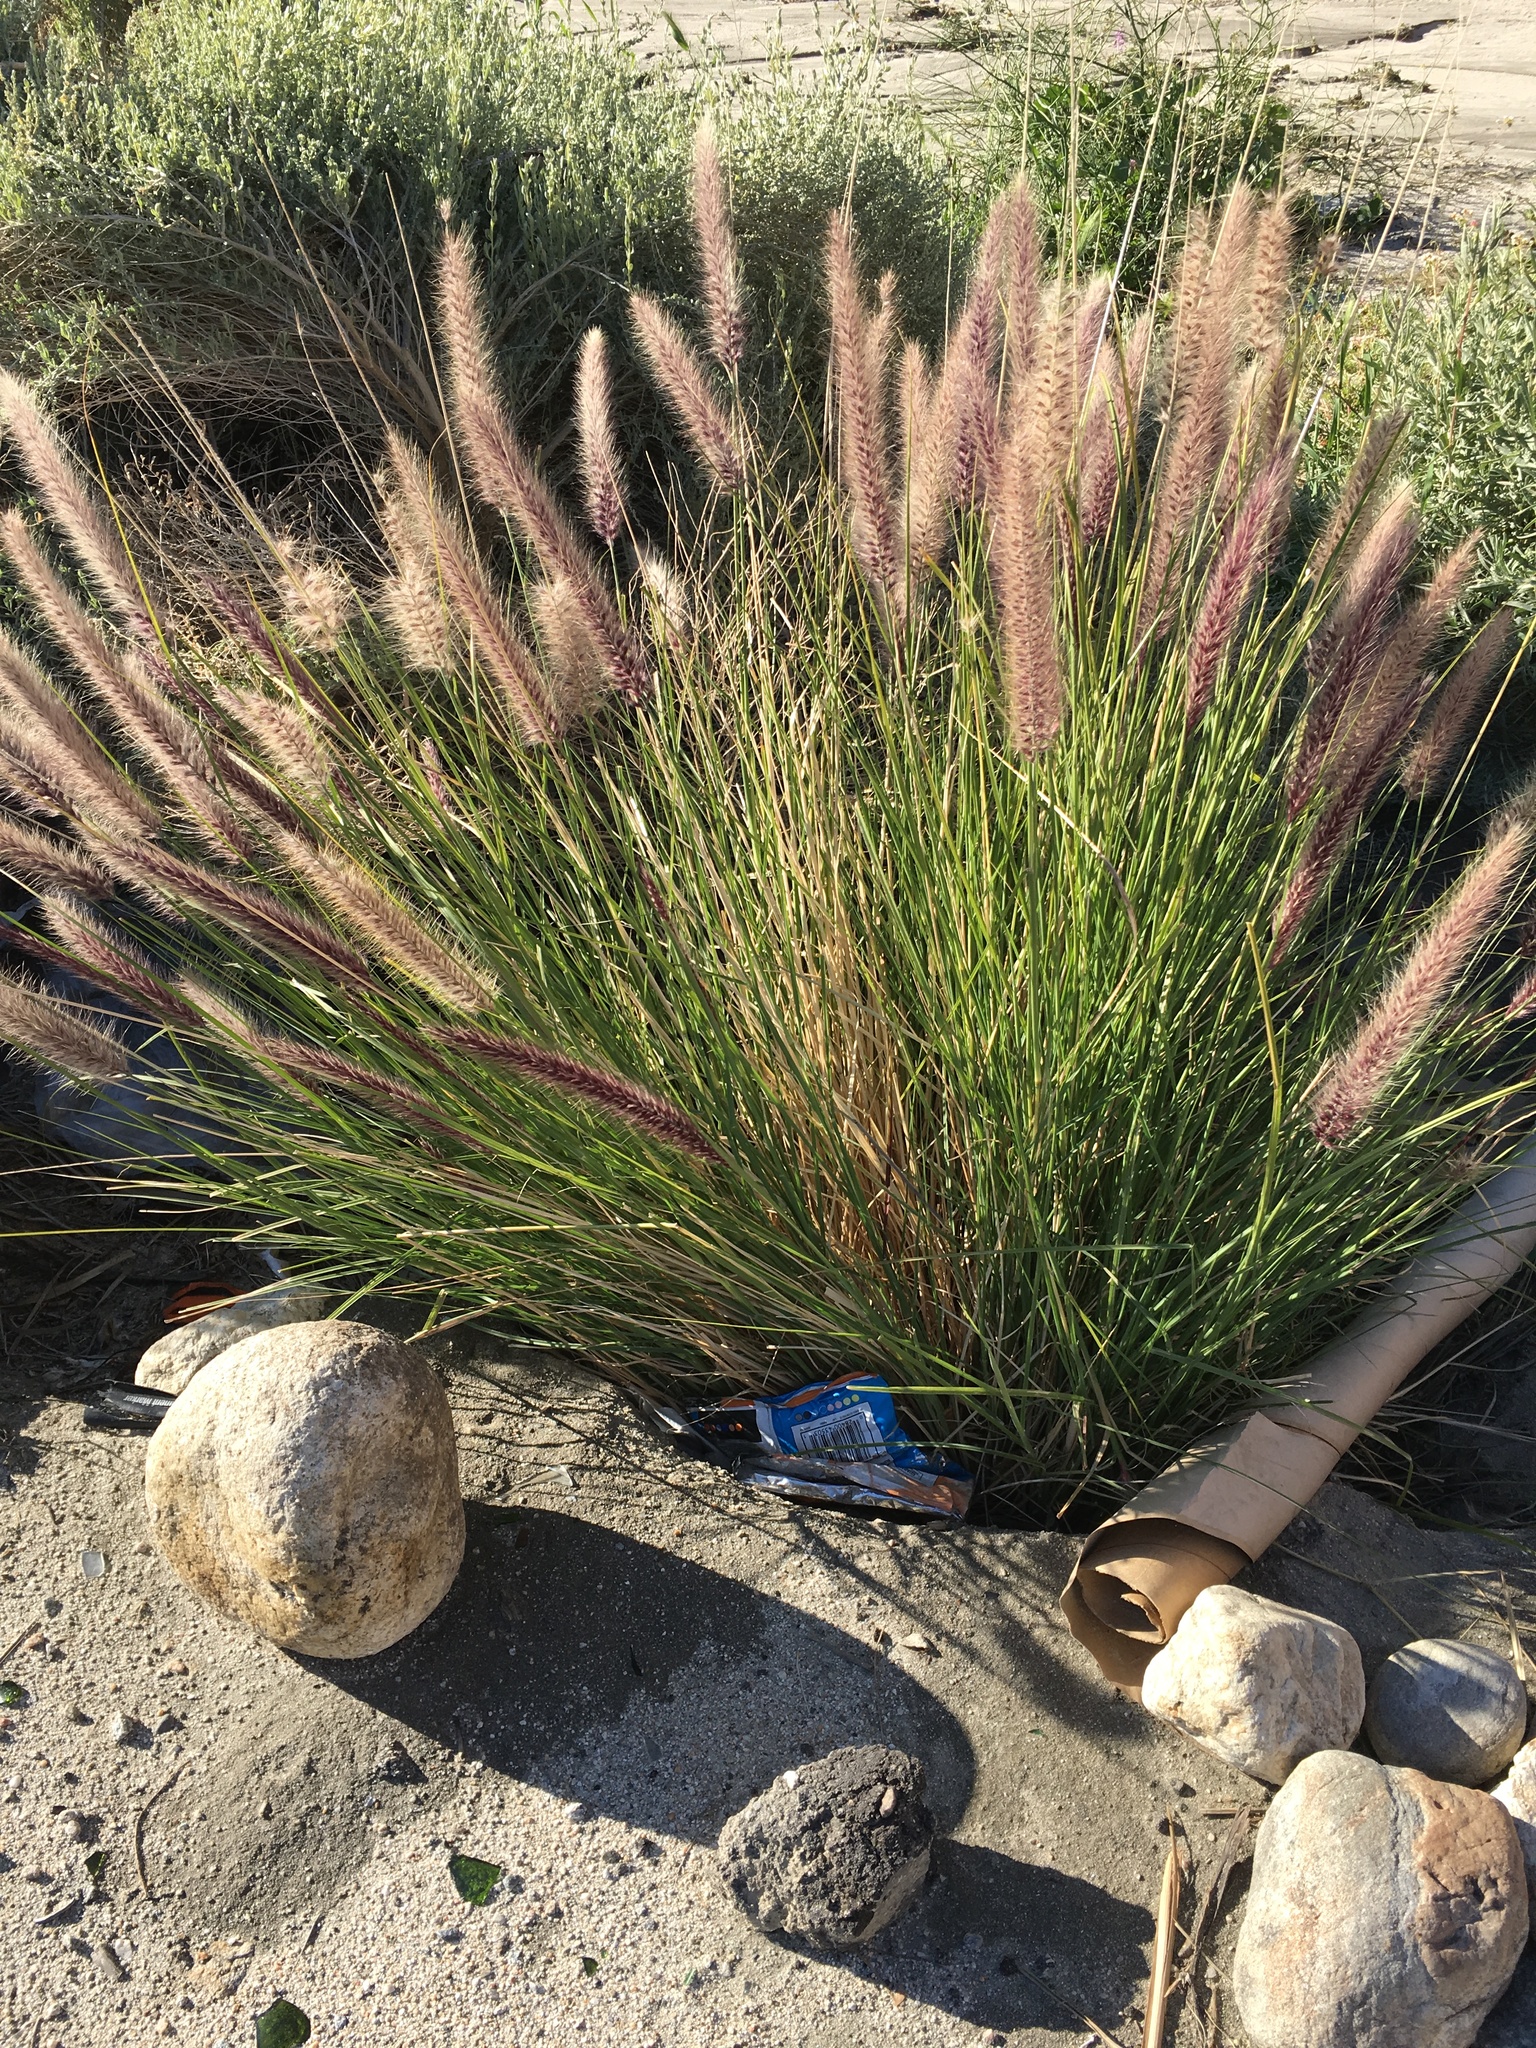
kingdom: Plantae
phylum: Tracheophyta
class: Liliopsida
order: Poales
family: Poaceae
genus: Cenchrus
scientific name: Cenchrus setaceus
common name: Crimson fountaingrass
